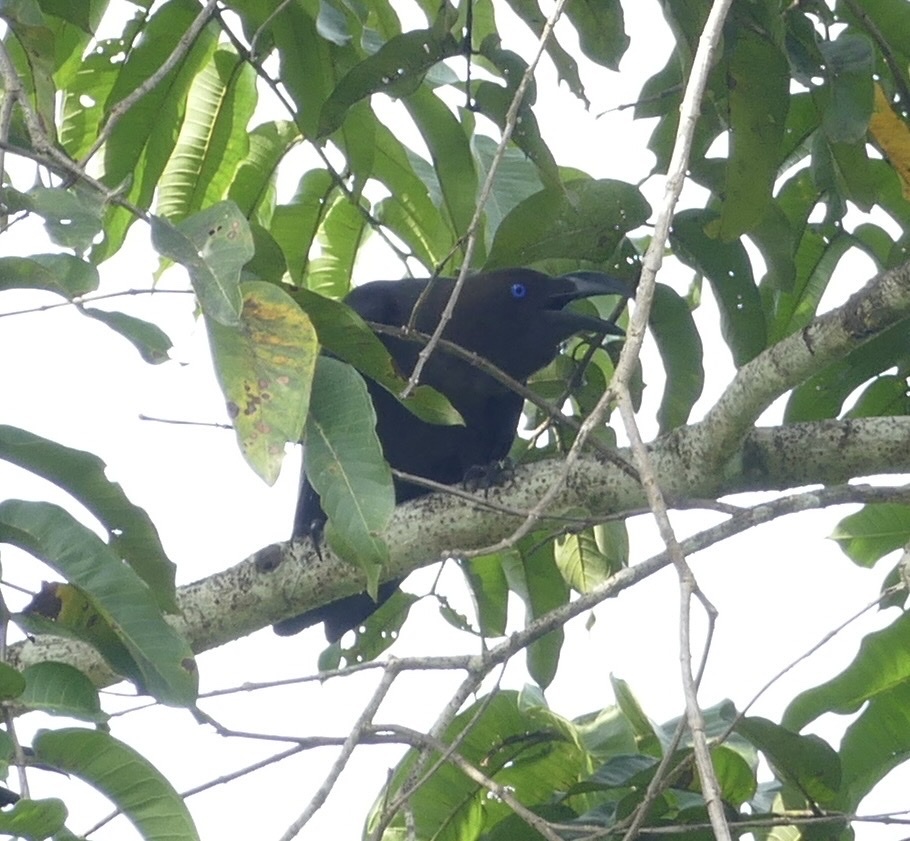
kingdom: Animalia
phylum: Chordata
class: Aves
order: Passeriformes
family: Corvidae
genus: Corvus
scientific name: Corvus fuscicapillus
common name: Brown-headed crow
